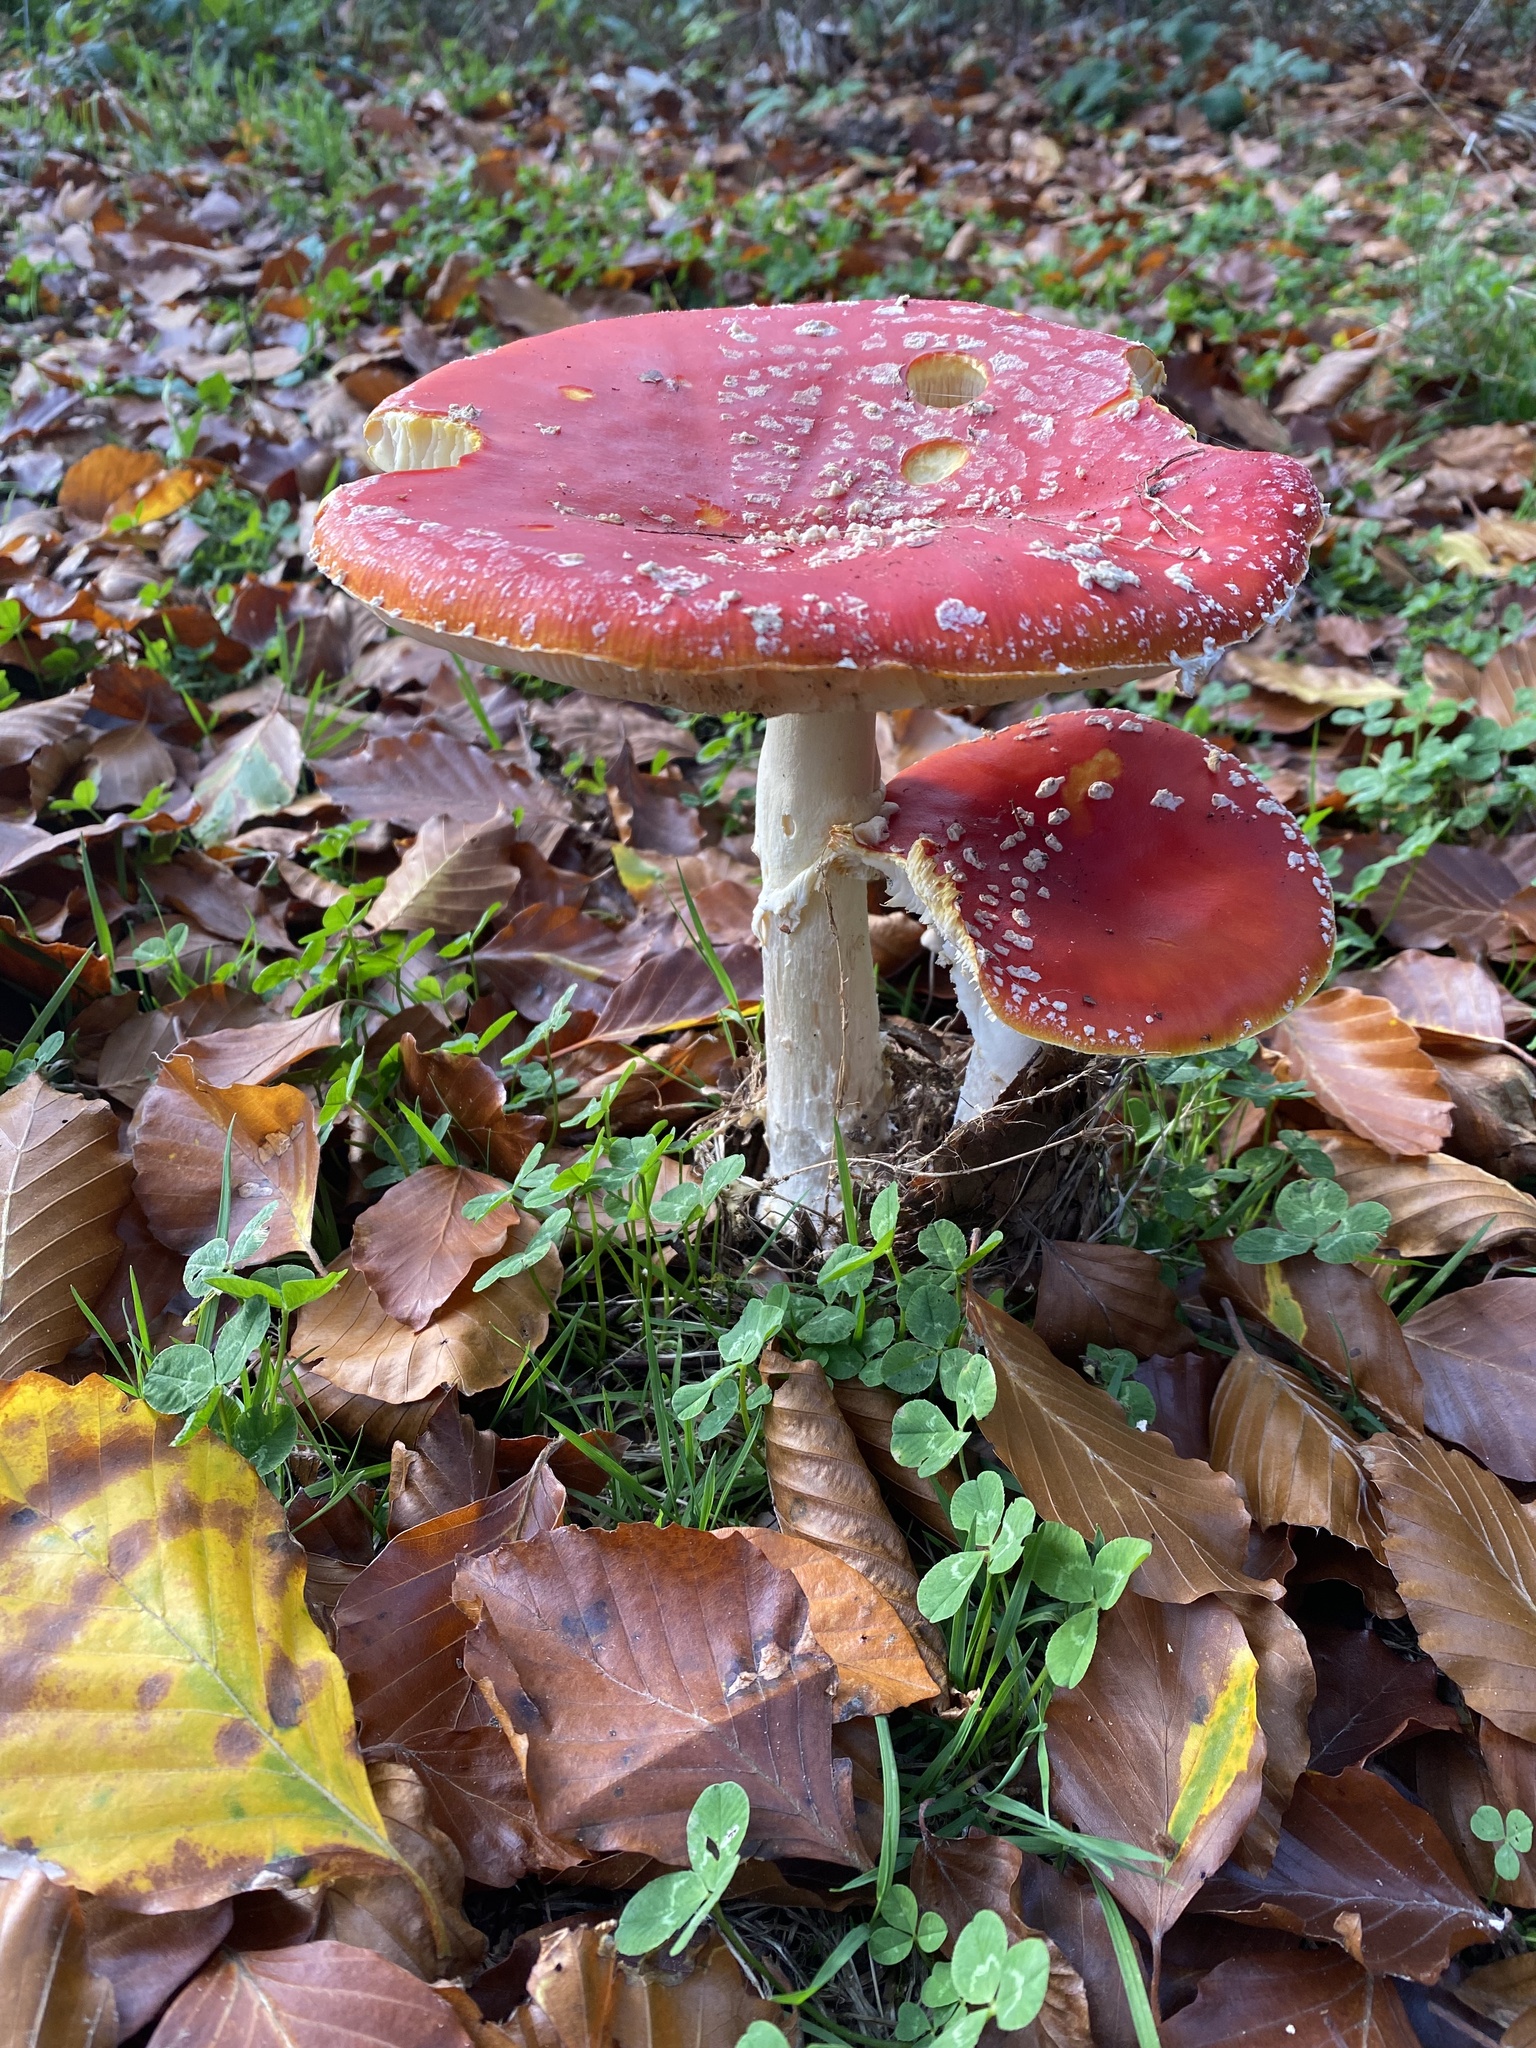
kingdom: Fungi
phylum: Basidiomycota
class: Agaricomycetes
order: Agaricales
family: Amanitaceae
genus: Amanita
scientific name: Amanita muscaria
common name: Fly agaric
